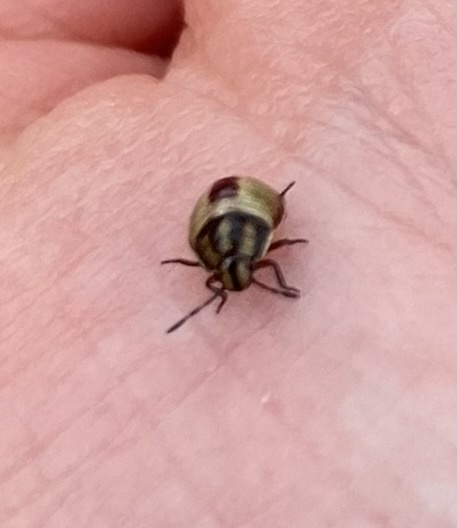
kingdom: Animalia
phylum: Arthropoda
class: Insecta
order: Hemiptera
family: Pentatomidae
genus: Piezodorus
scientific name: Piezodorus lituratus
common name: Stink bug
